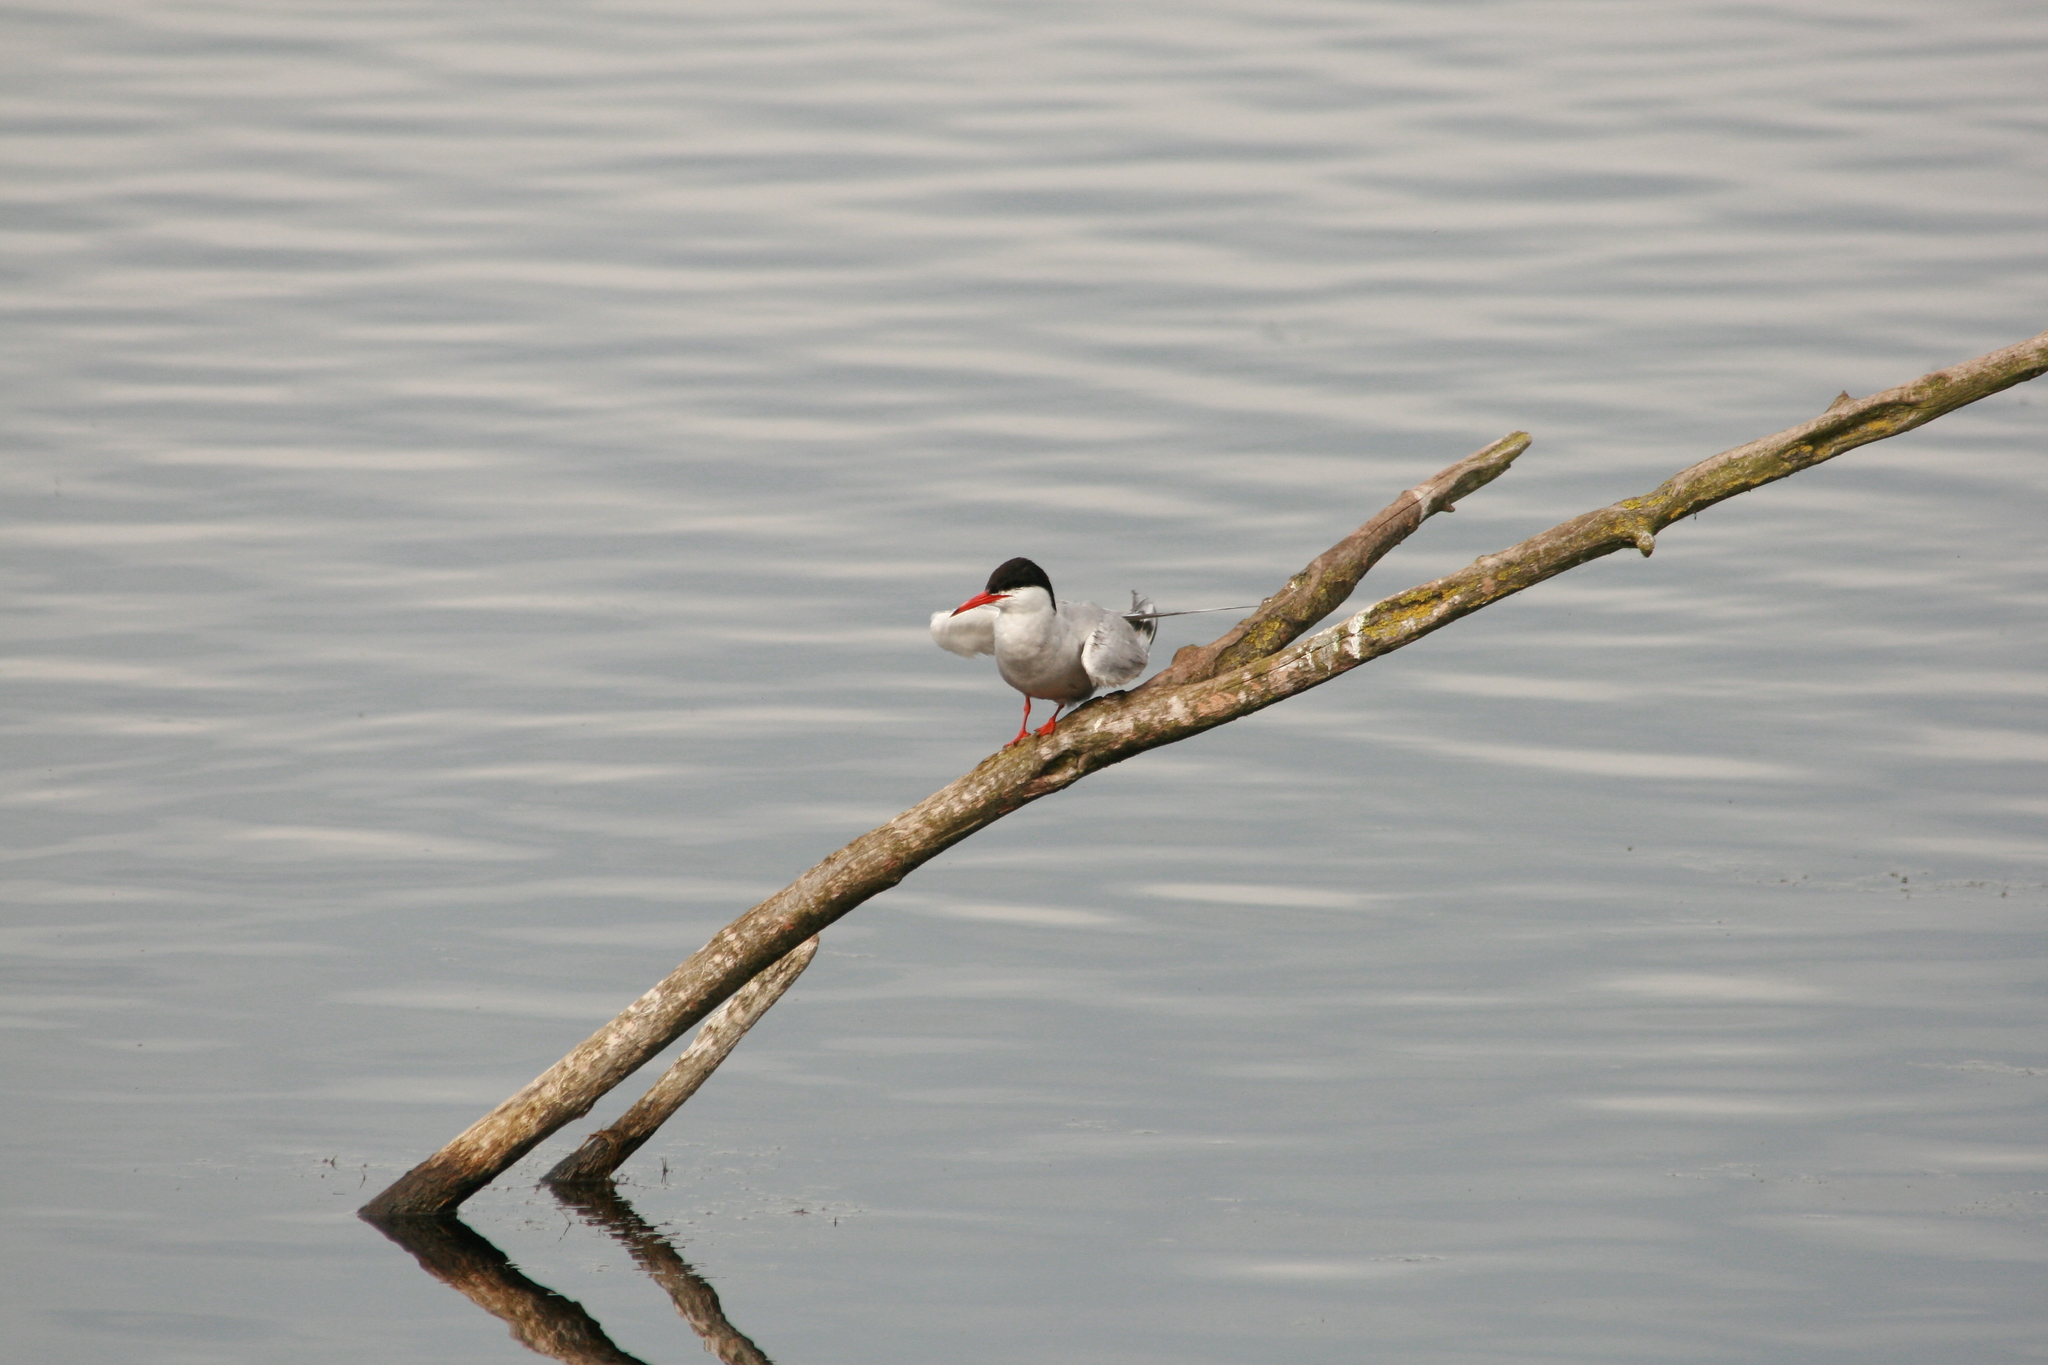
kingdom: Animalia
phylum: Chordata
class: Aves
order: Charadriiformes
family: Laridae
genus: Sterna
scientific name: Sterna hirundo
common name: Common tern
